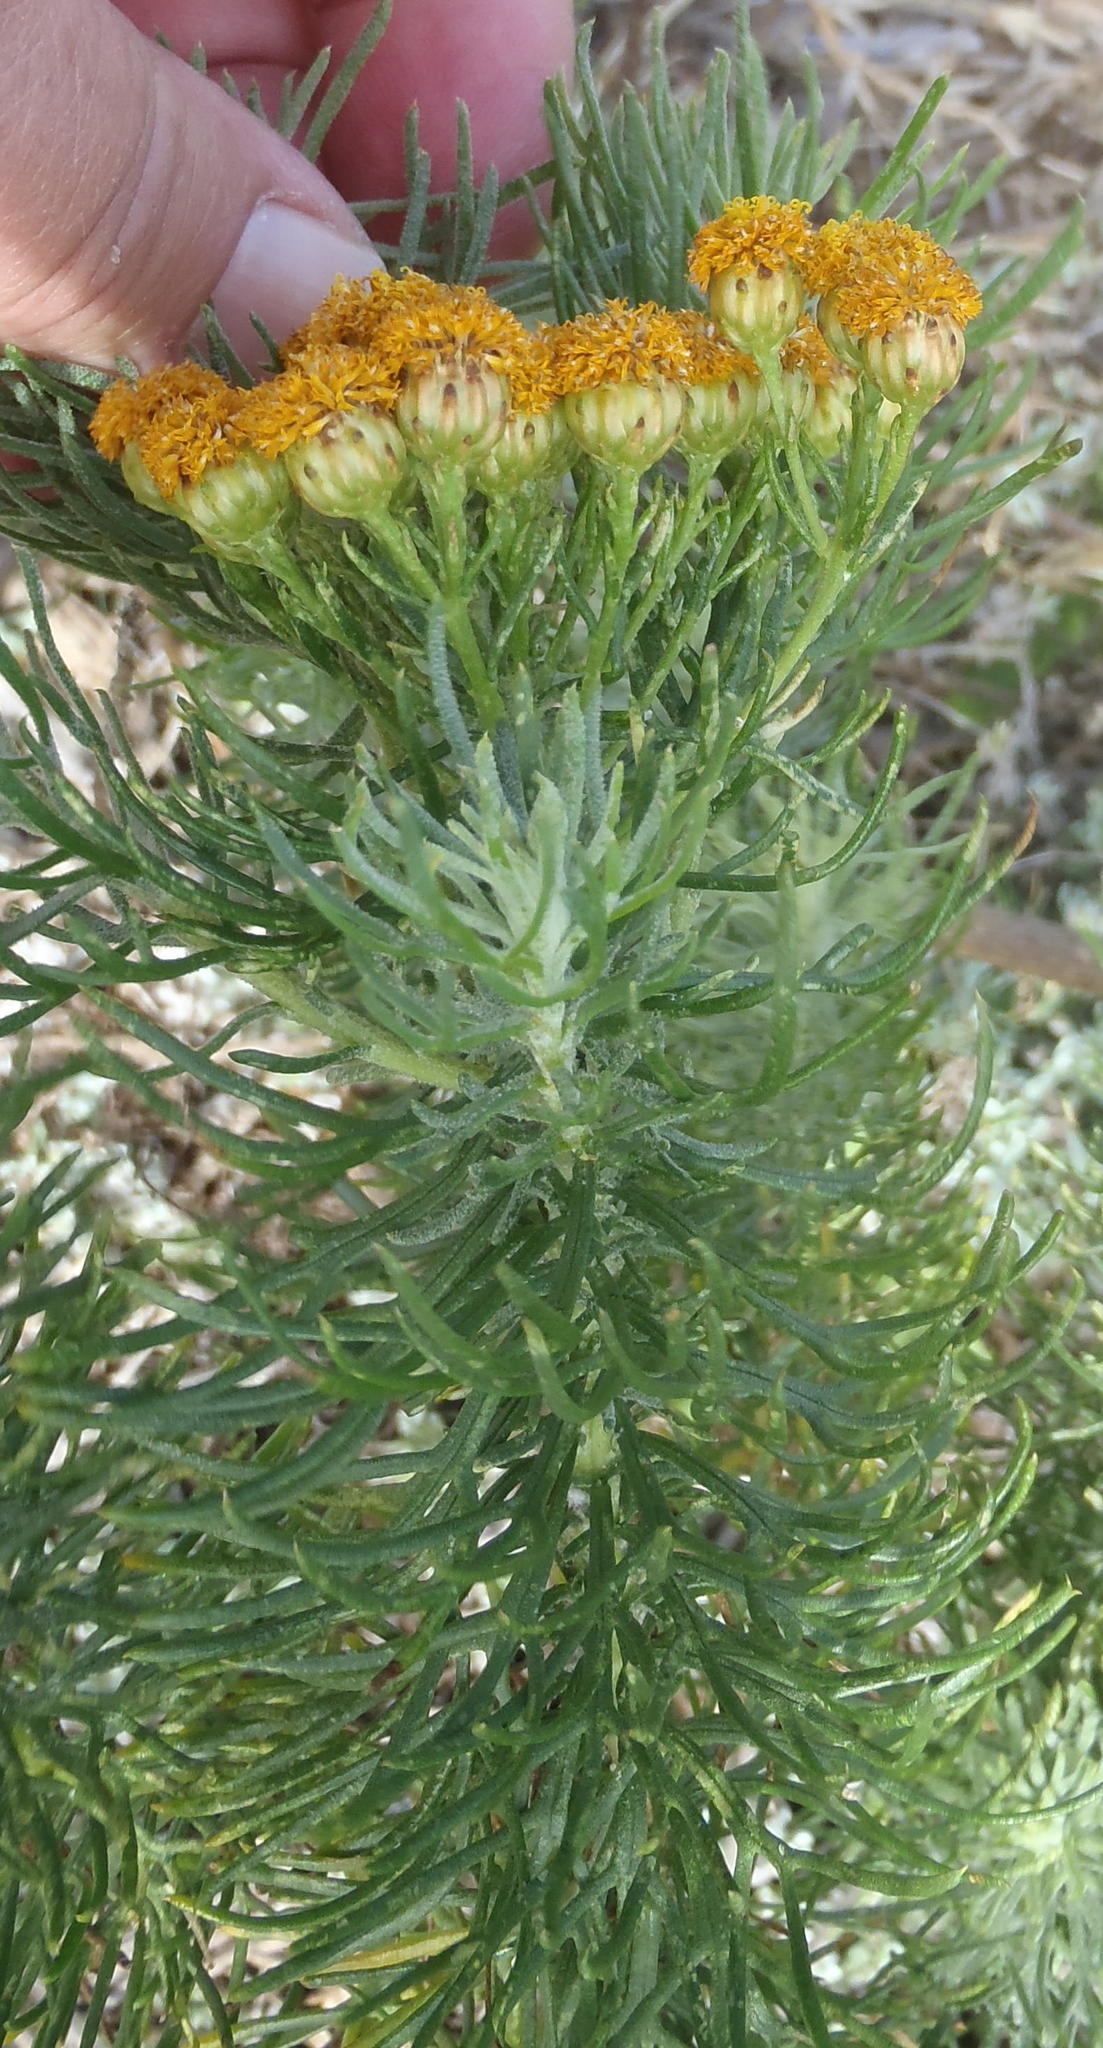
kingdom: Plantae
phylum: Tracheophyta
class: Magnoliopsida
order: Asterales
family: Asteraceae
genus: Athanasia
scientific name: Athanasia crithmifolia
